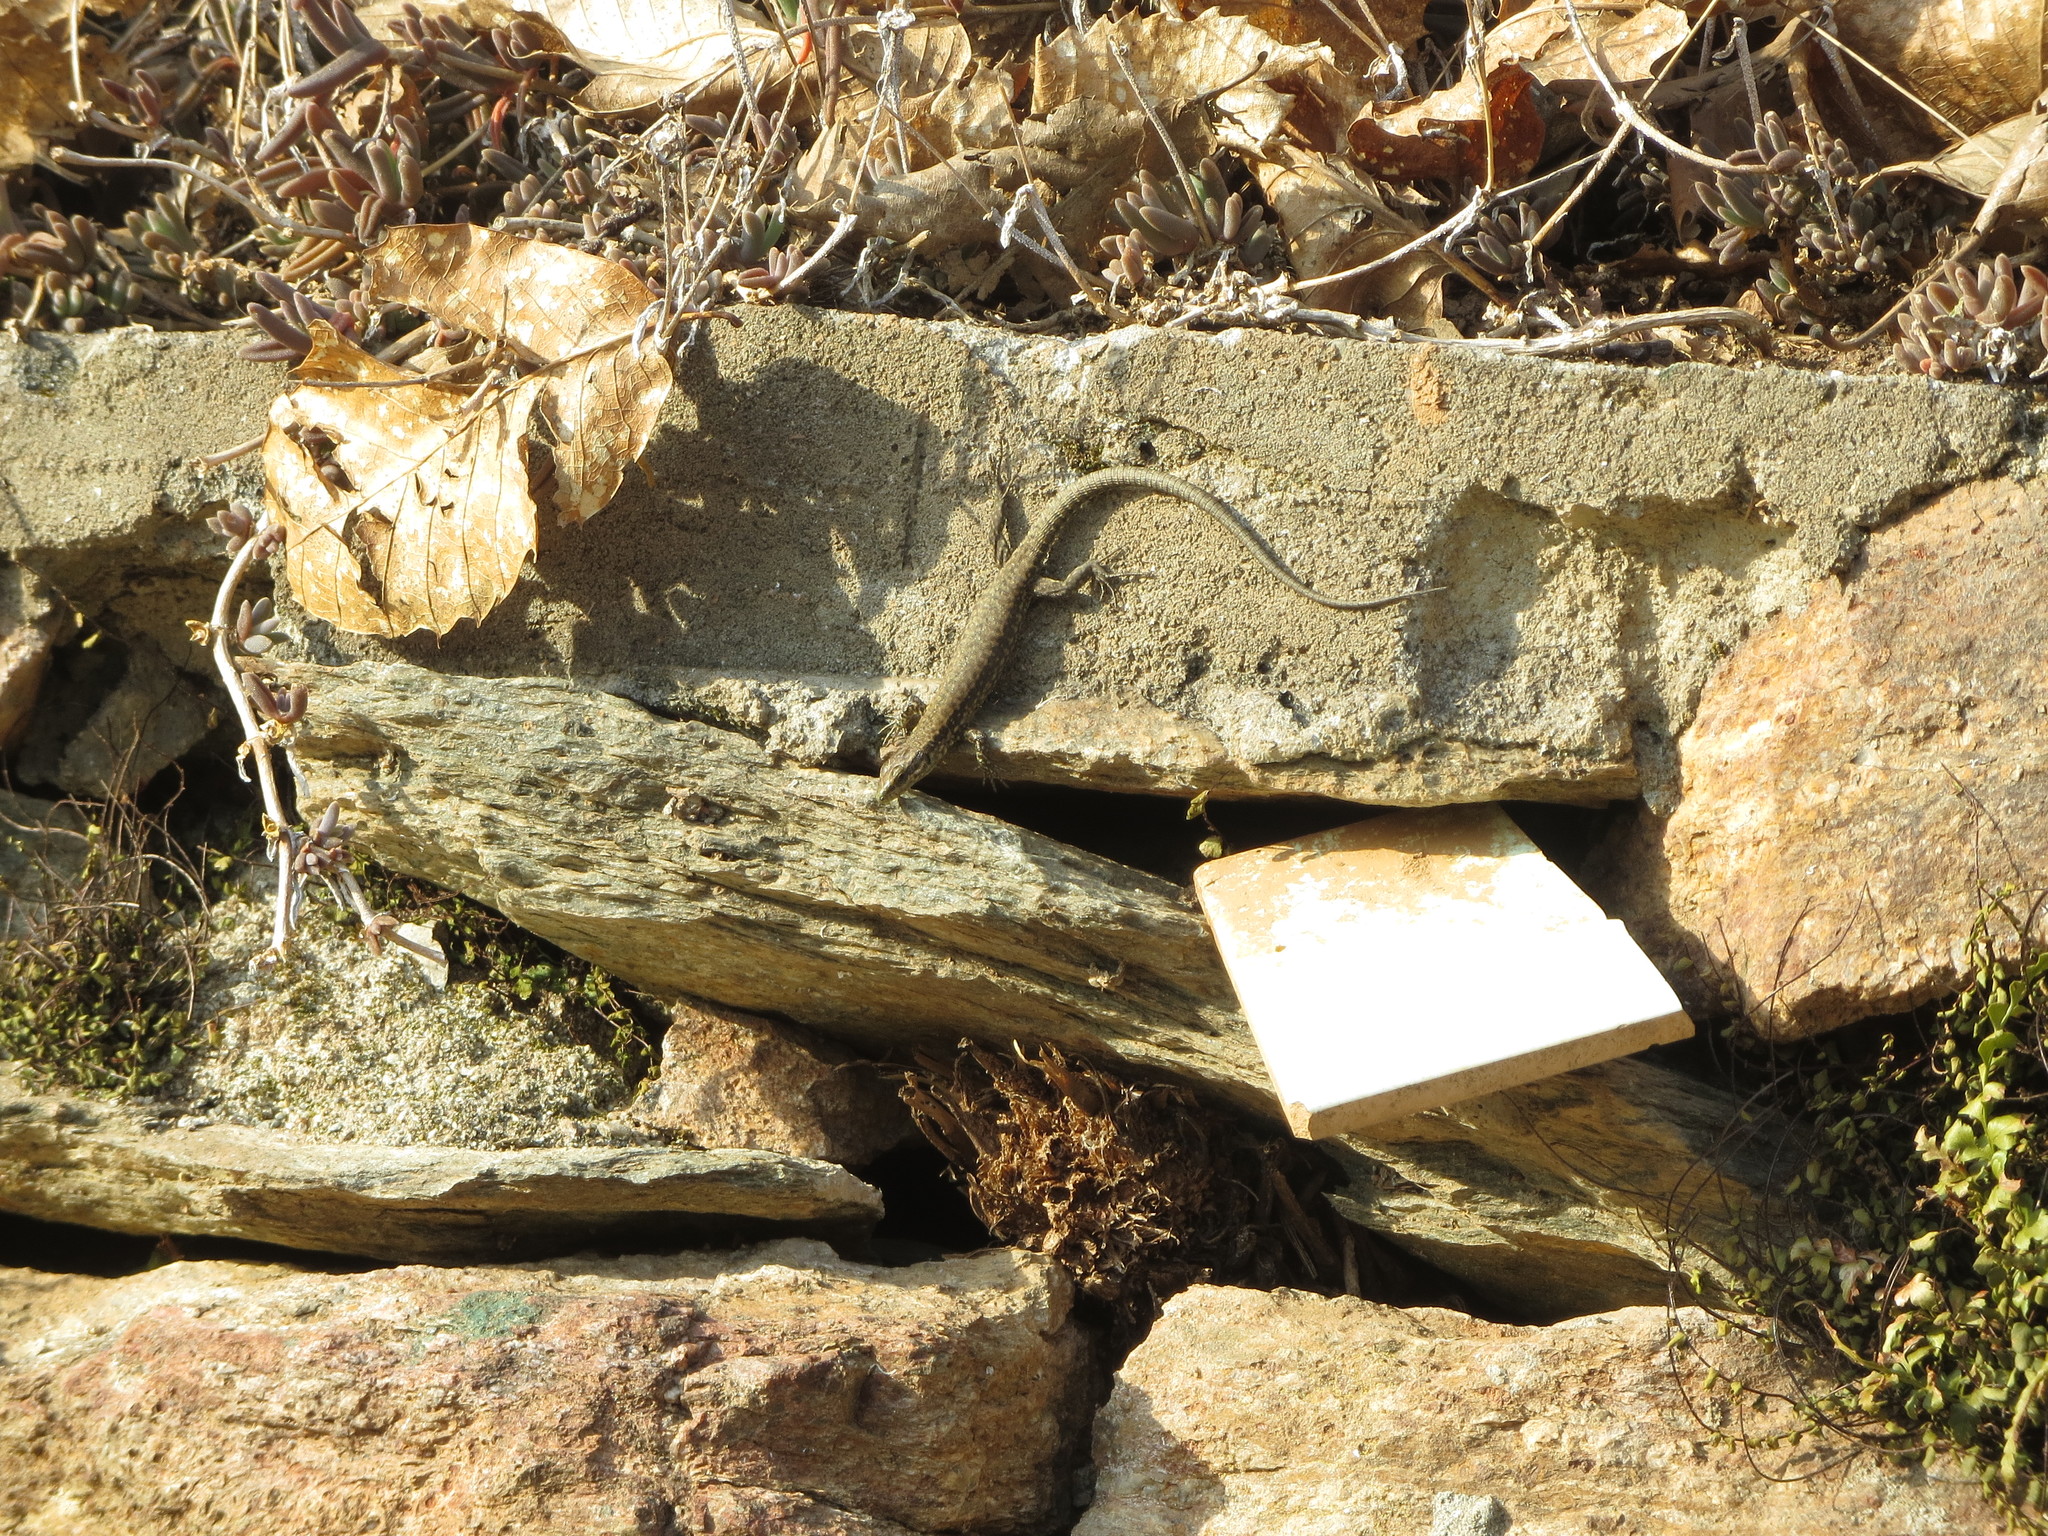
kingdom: Animalia
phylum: Chordata
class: Squamata
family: Lacertidae
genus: Podarcis
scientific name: Podarcis muralis
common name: Common wall lizard
